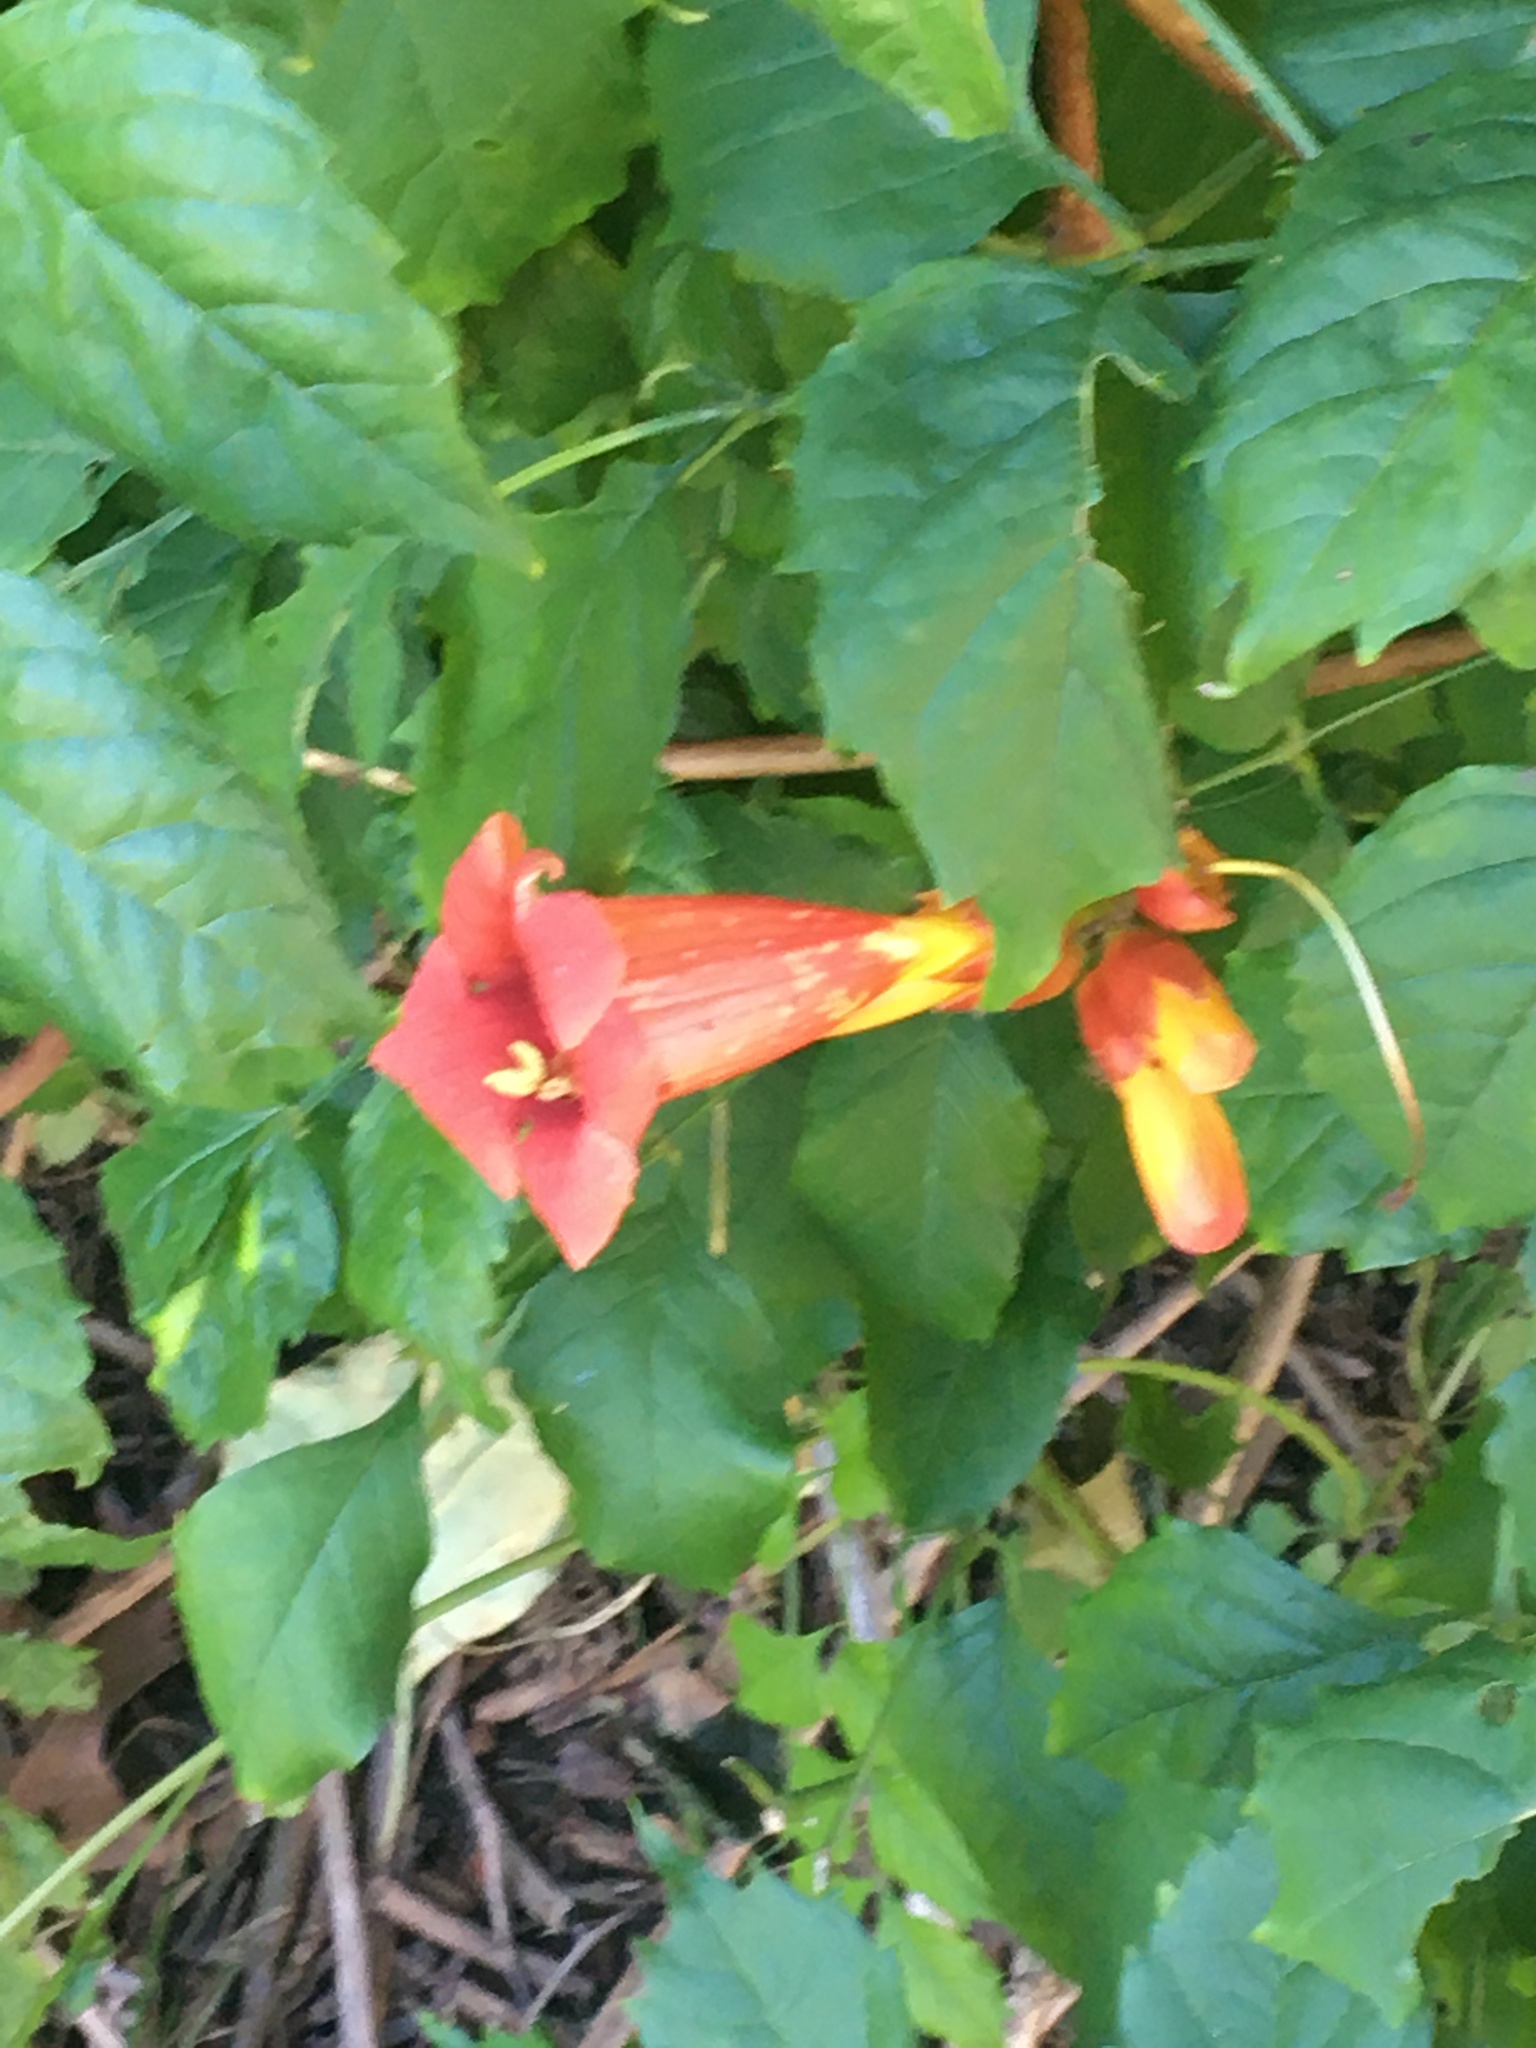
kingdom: Plantae
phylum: Tracheophyta
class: Magnoliopsida
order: Lamiales
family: Bignoniaceae
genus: Campsis
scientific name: Campsis radicans
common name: Trumpet-creeper
